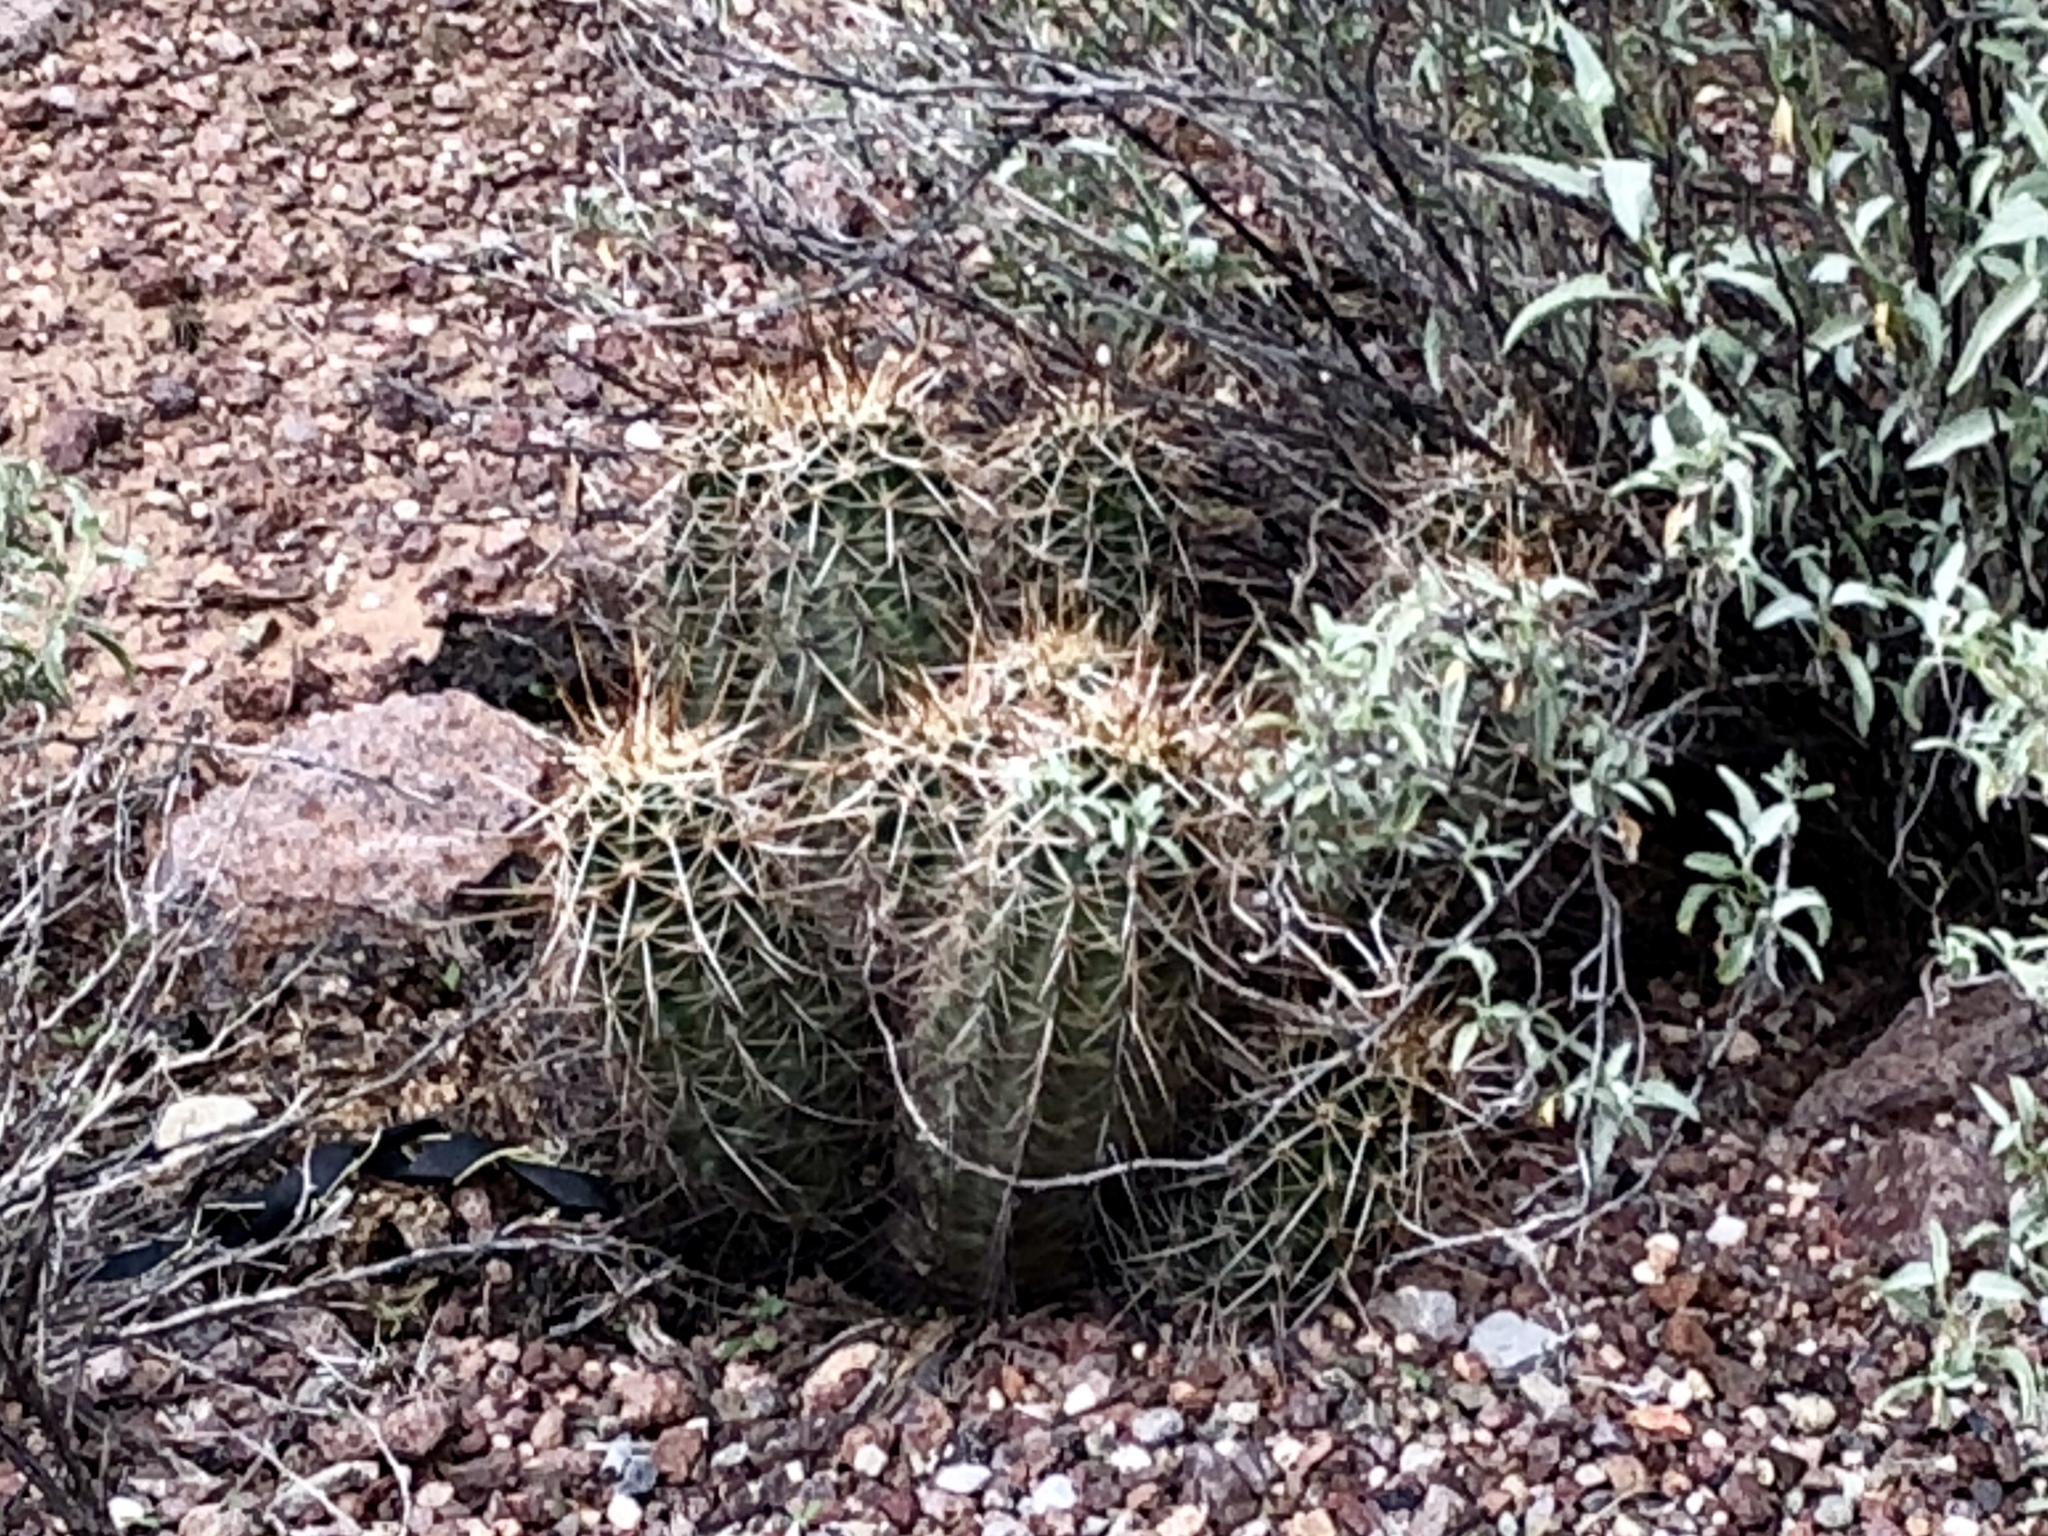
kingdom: Plantae
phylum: Tracheophyta
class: Magnoliopsida
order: Caryophyllales
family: Cactaceae
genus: Echinocereus
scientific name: Echinocereus fasciculatus
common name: Bundle hedgehog
